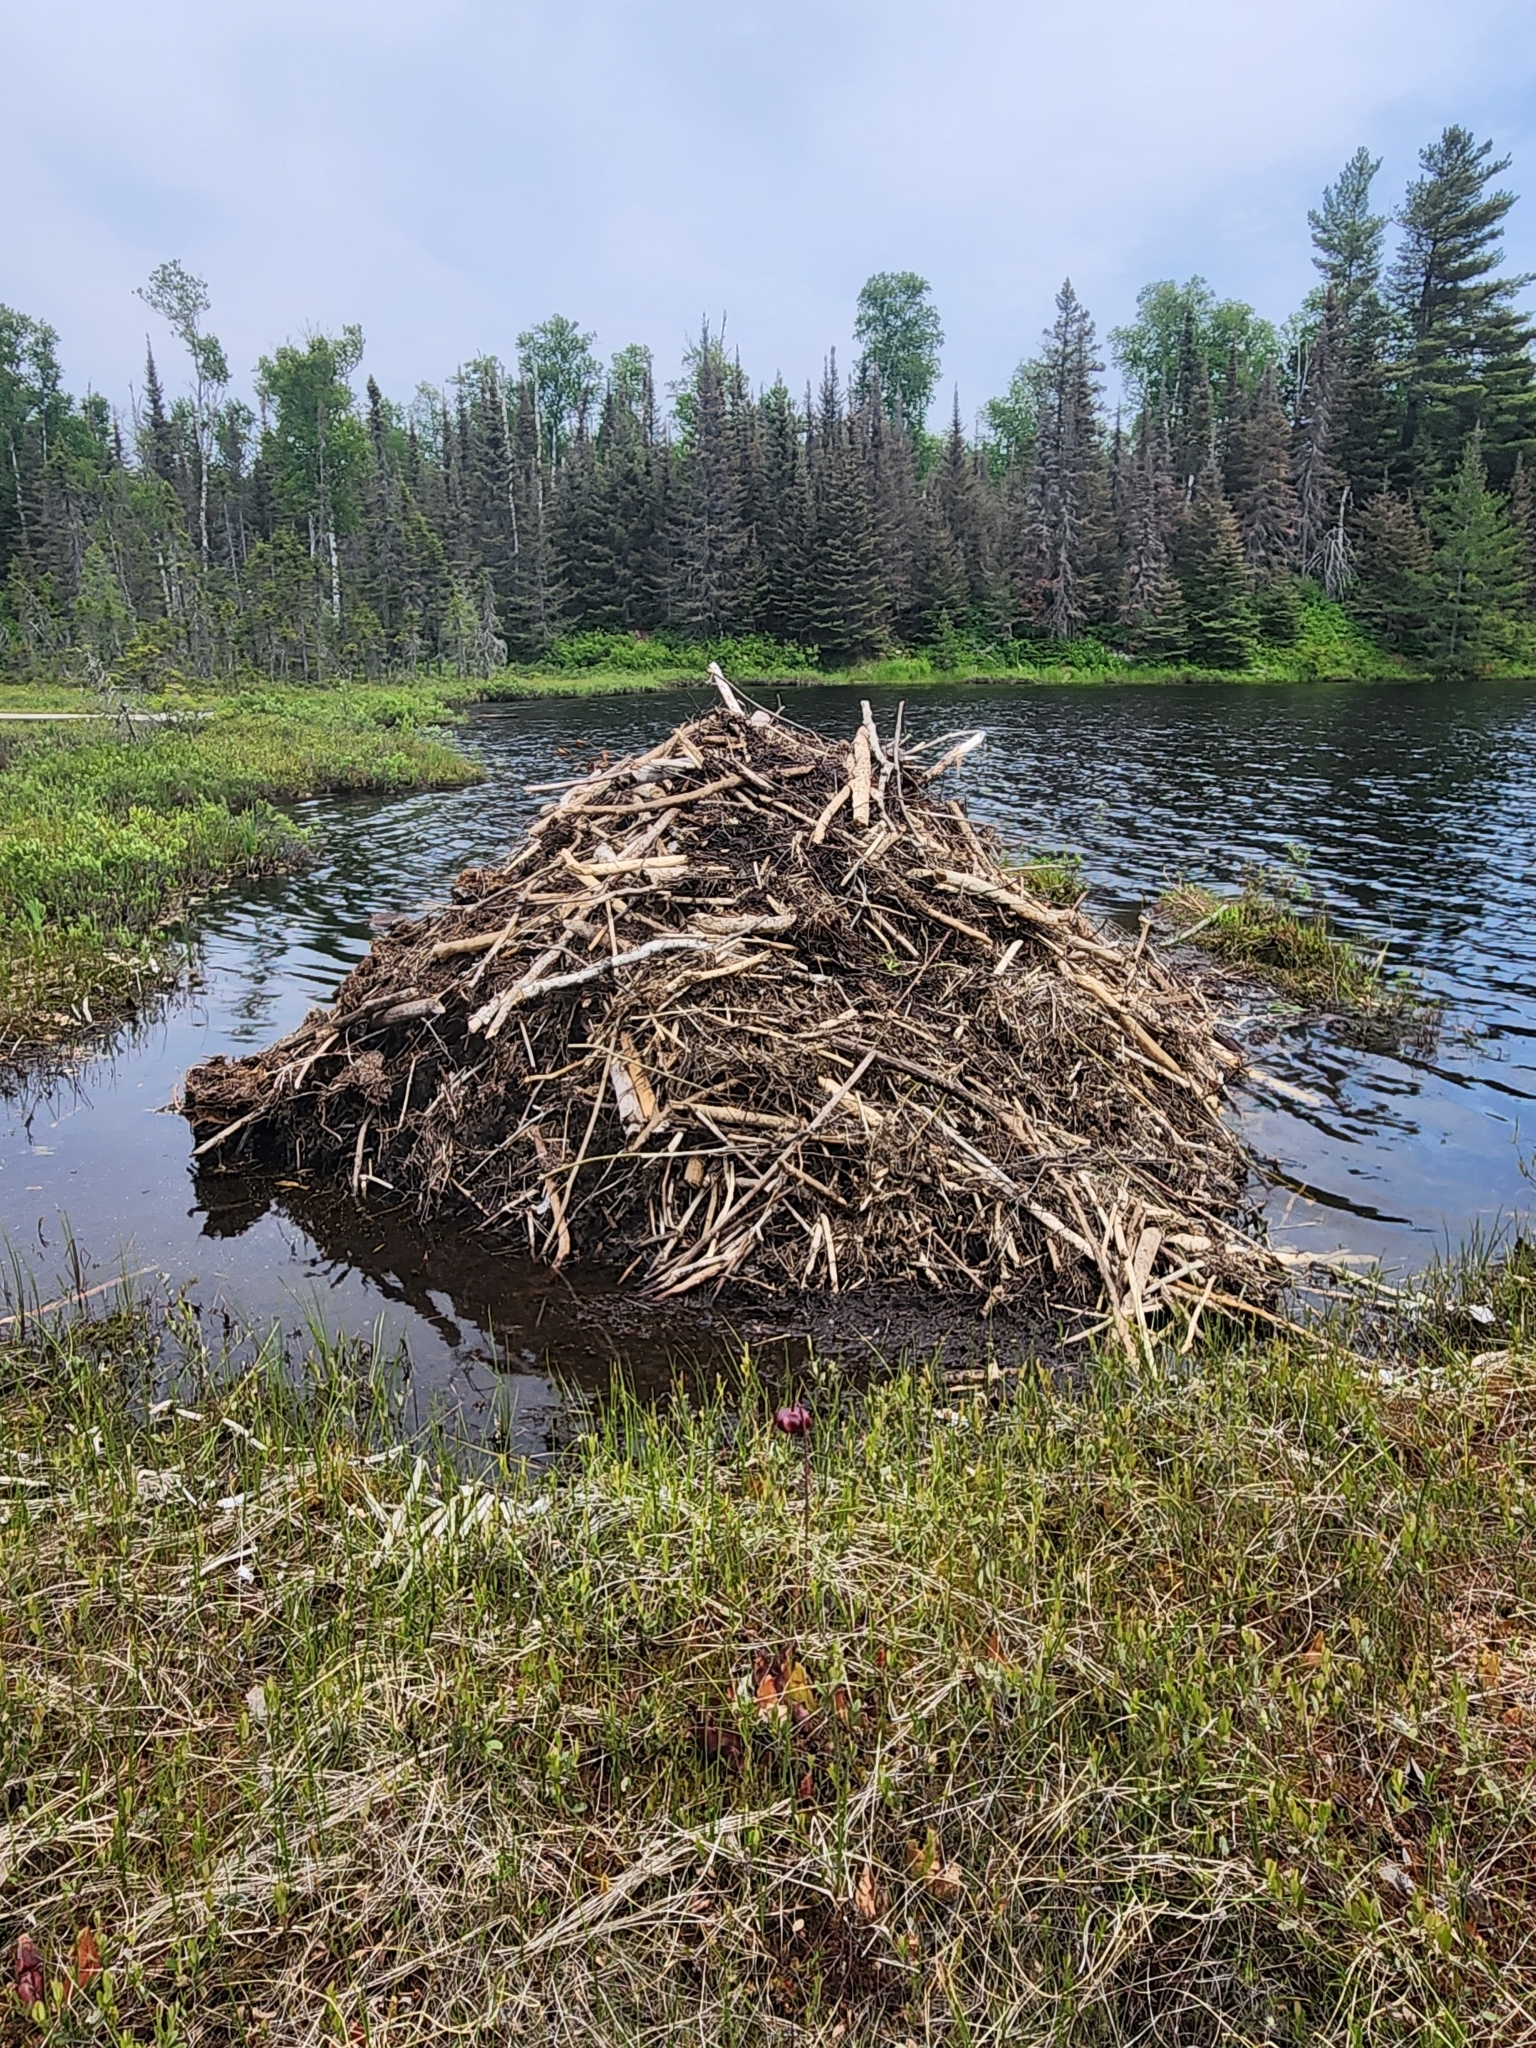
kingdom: Animalia
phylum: Chordata
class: Mammalia
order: Rodentia
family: Castoridae
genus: Castor
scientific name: Castor canadensis
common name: American beaver
